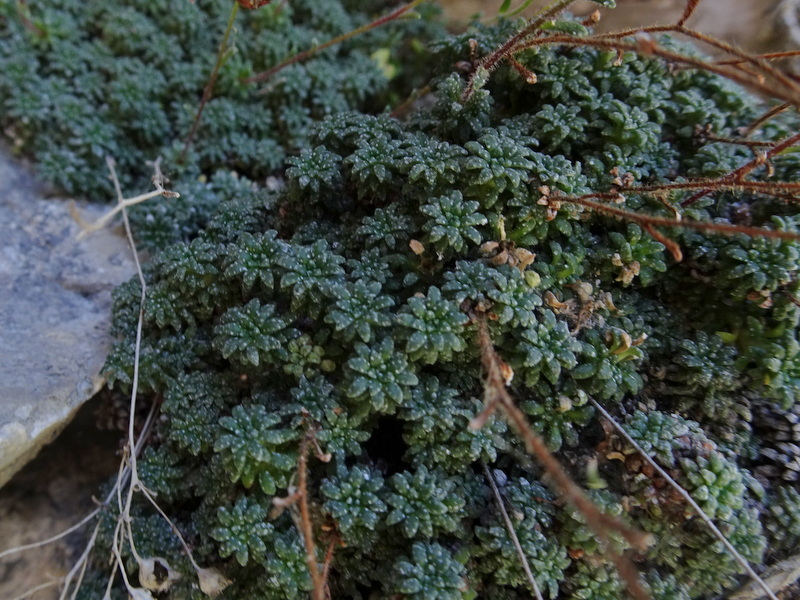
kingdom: Plantae
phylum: Tracheophyta
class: Magnoliopsida
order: Saxifragales
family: Saxifragaceae
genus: Saxifraga
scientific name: Saxifraga caesia
